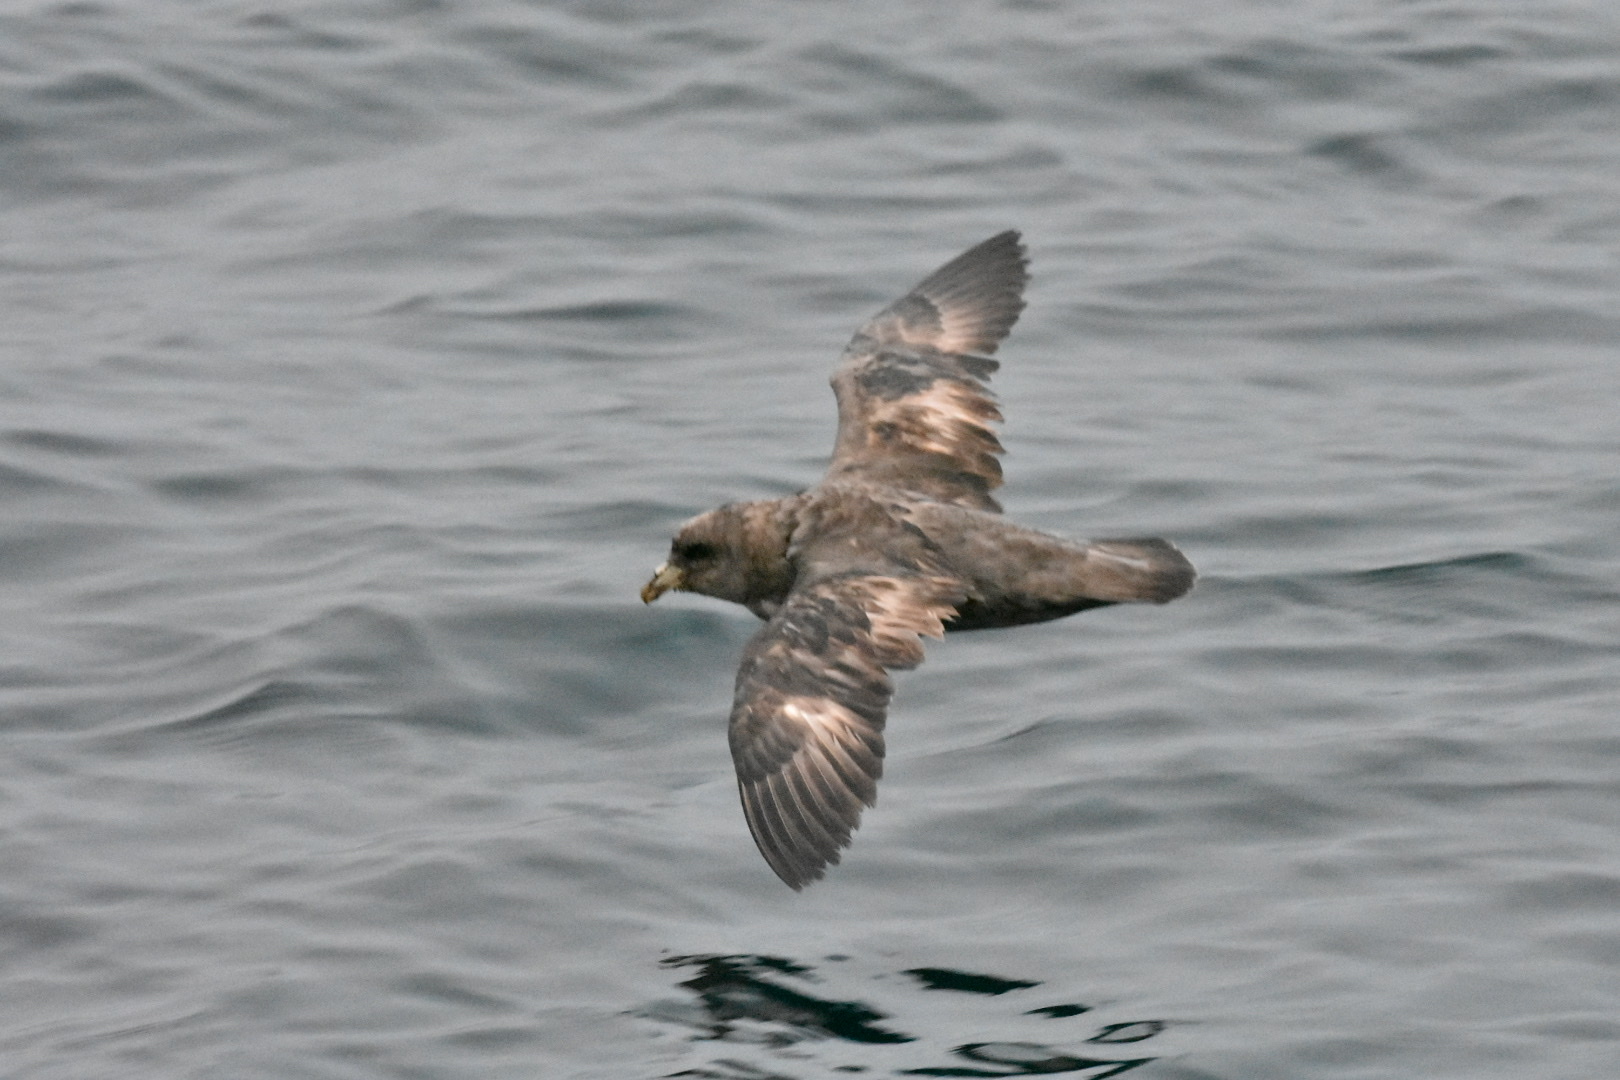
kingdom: Animalia
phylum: Chordata
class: Aves
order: Procellariiformes
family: Procellariidae
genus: Fulmarus
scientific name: Fulmarus glacialis
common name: Northern fulmar
